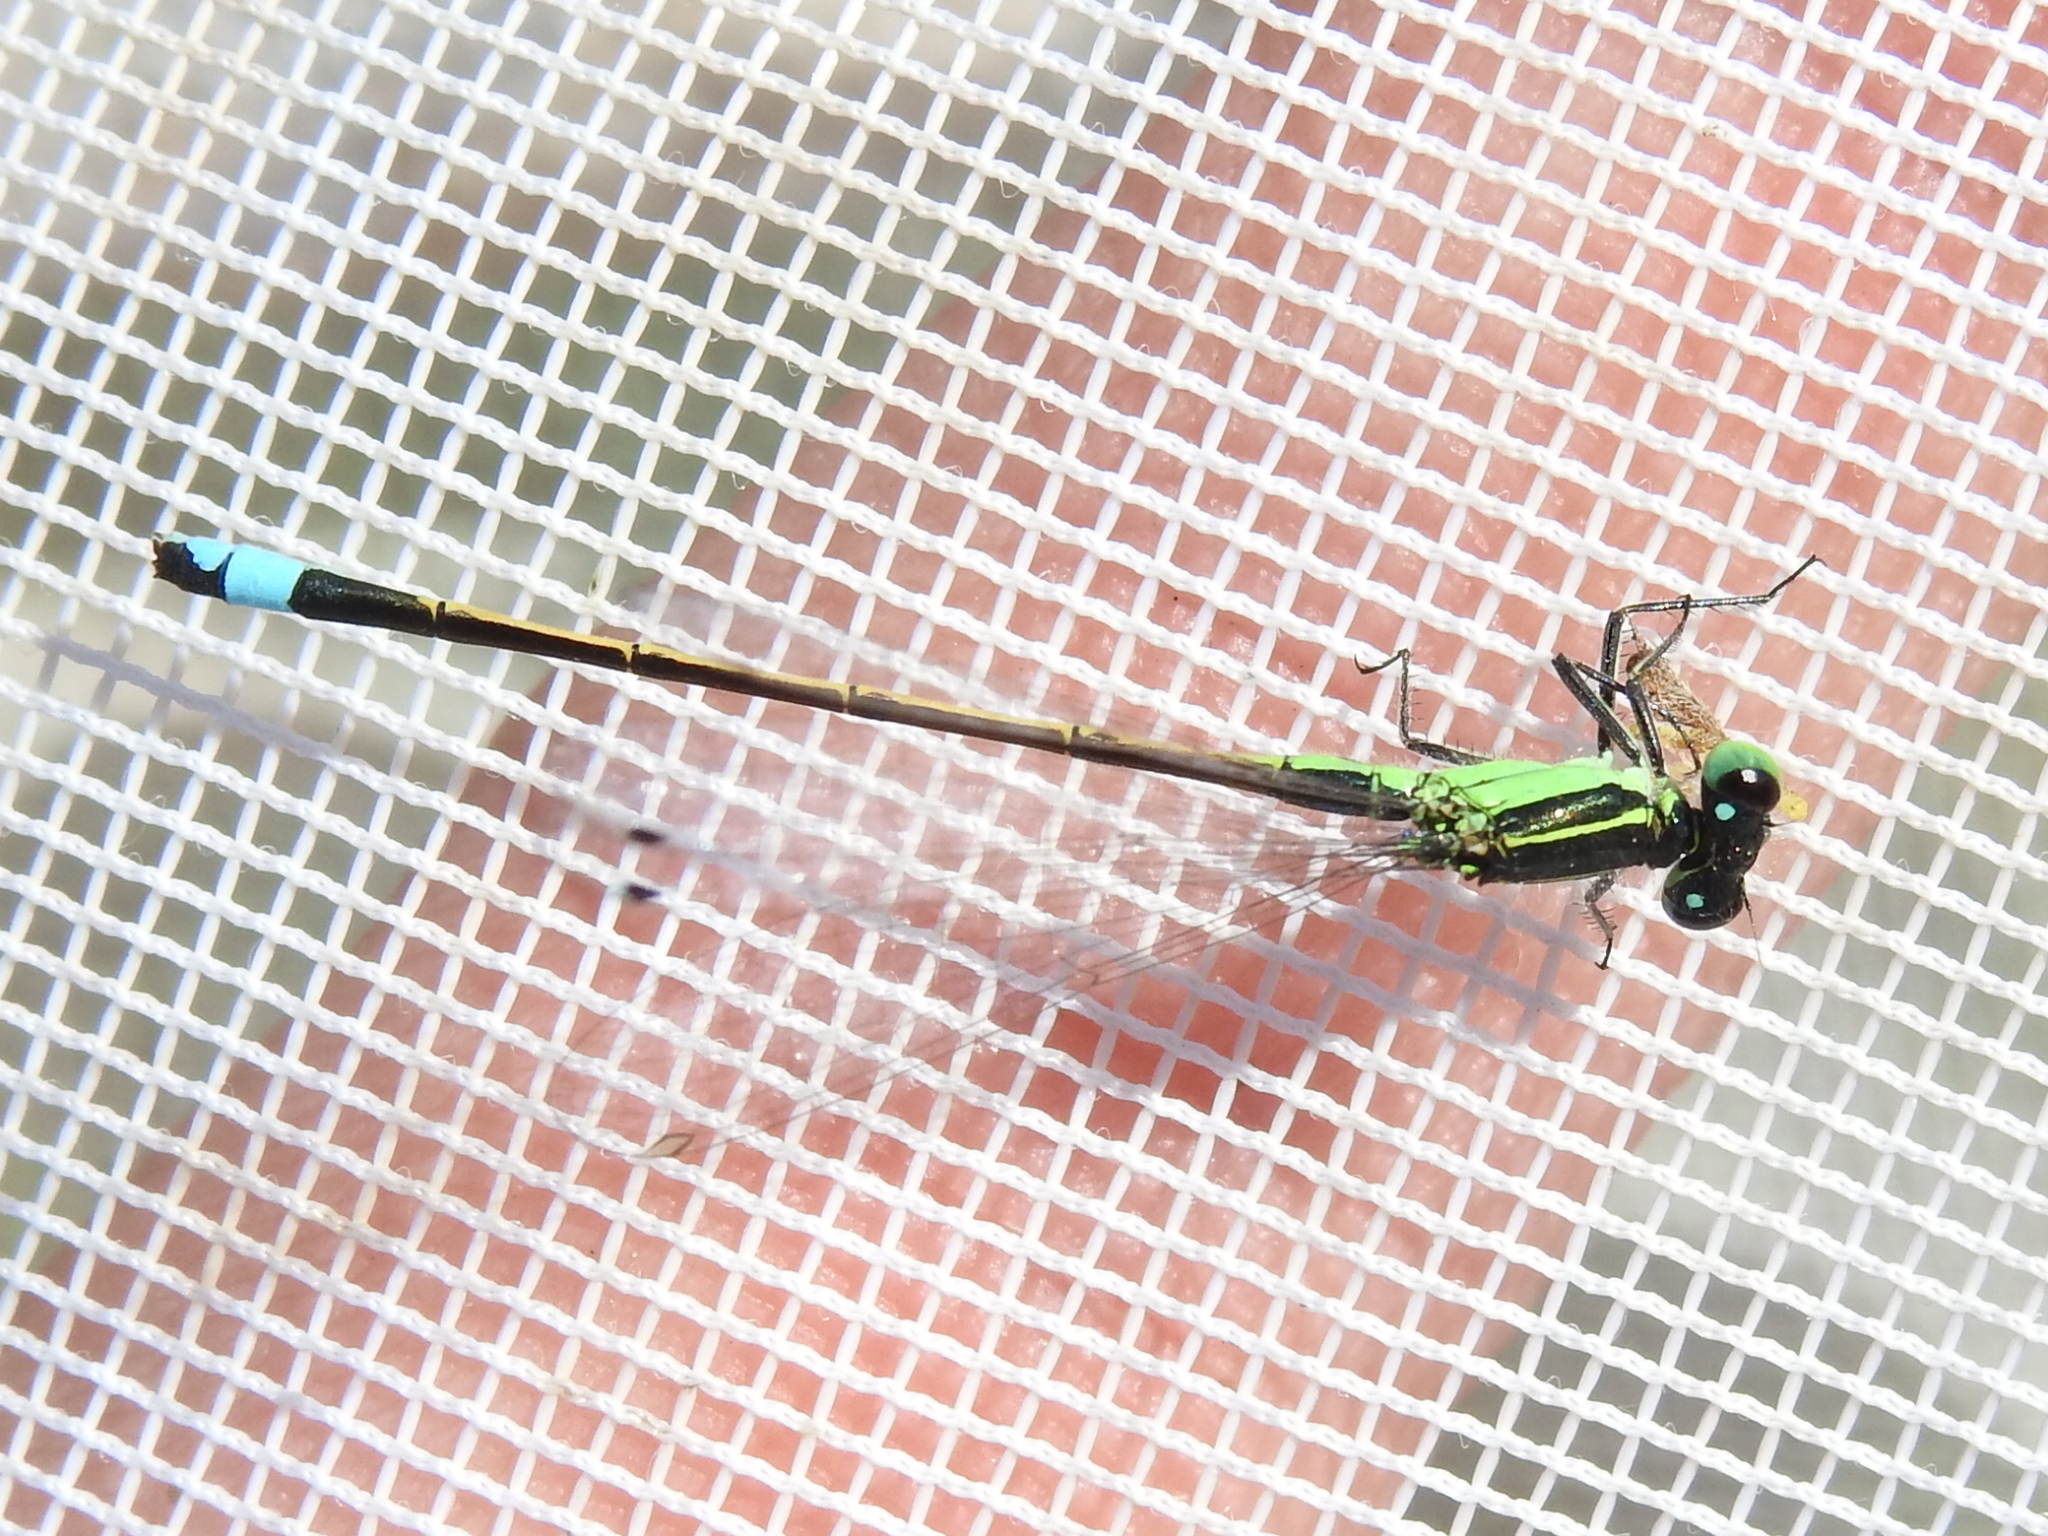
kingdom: Animalia
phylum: Arthropoda
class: Insecta
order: Odonata
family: Coenagrionidae
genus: Ischnura
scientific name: Ischnura ramburii
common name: Rambur's forktail
